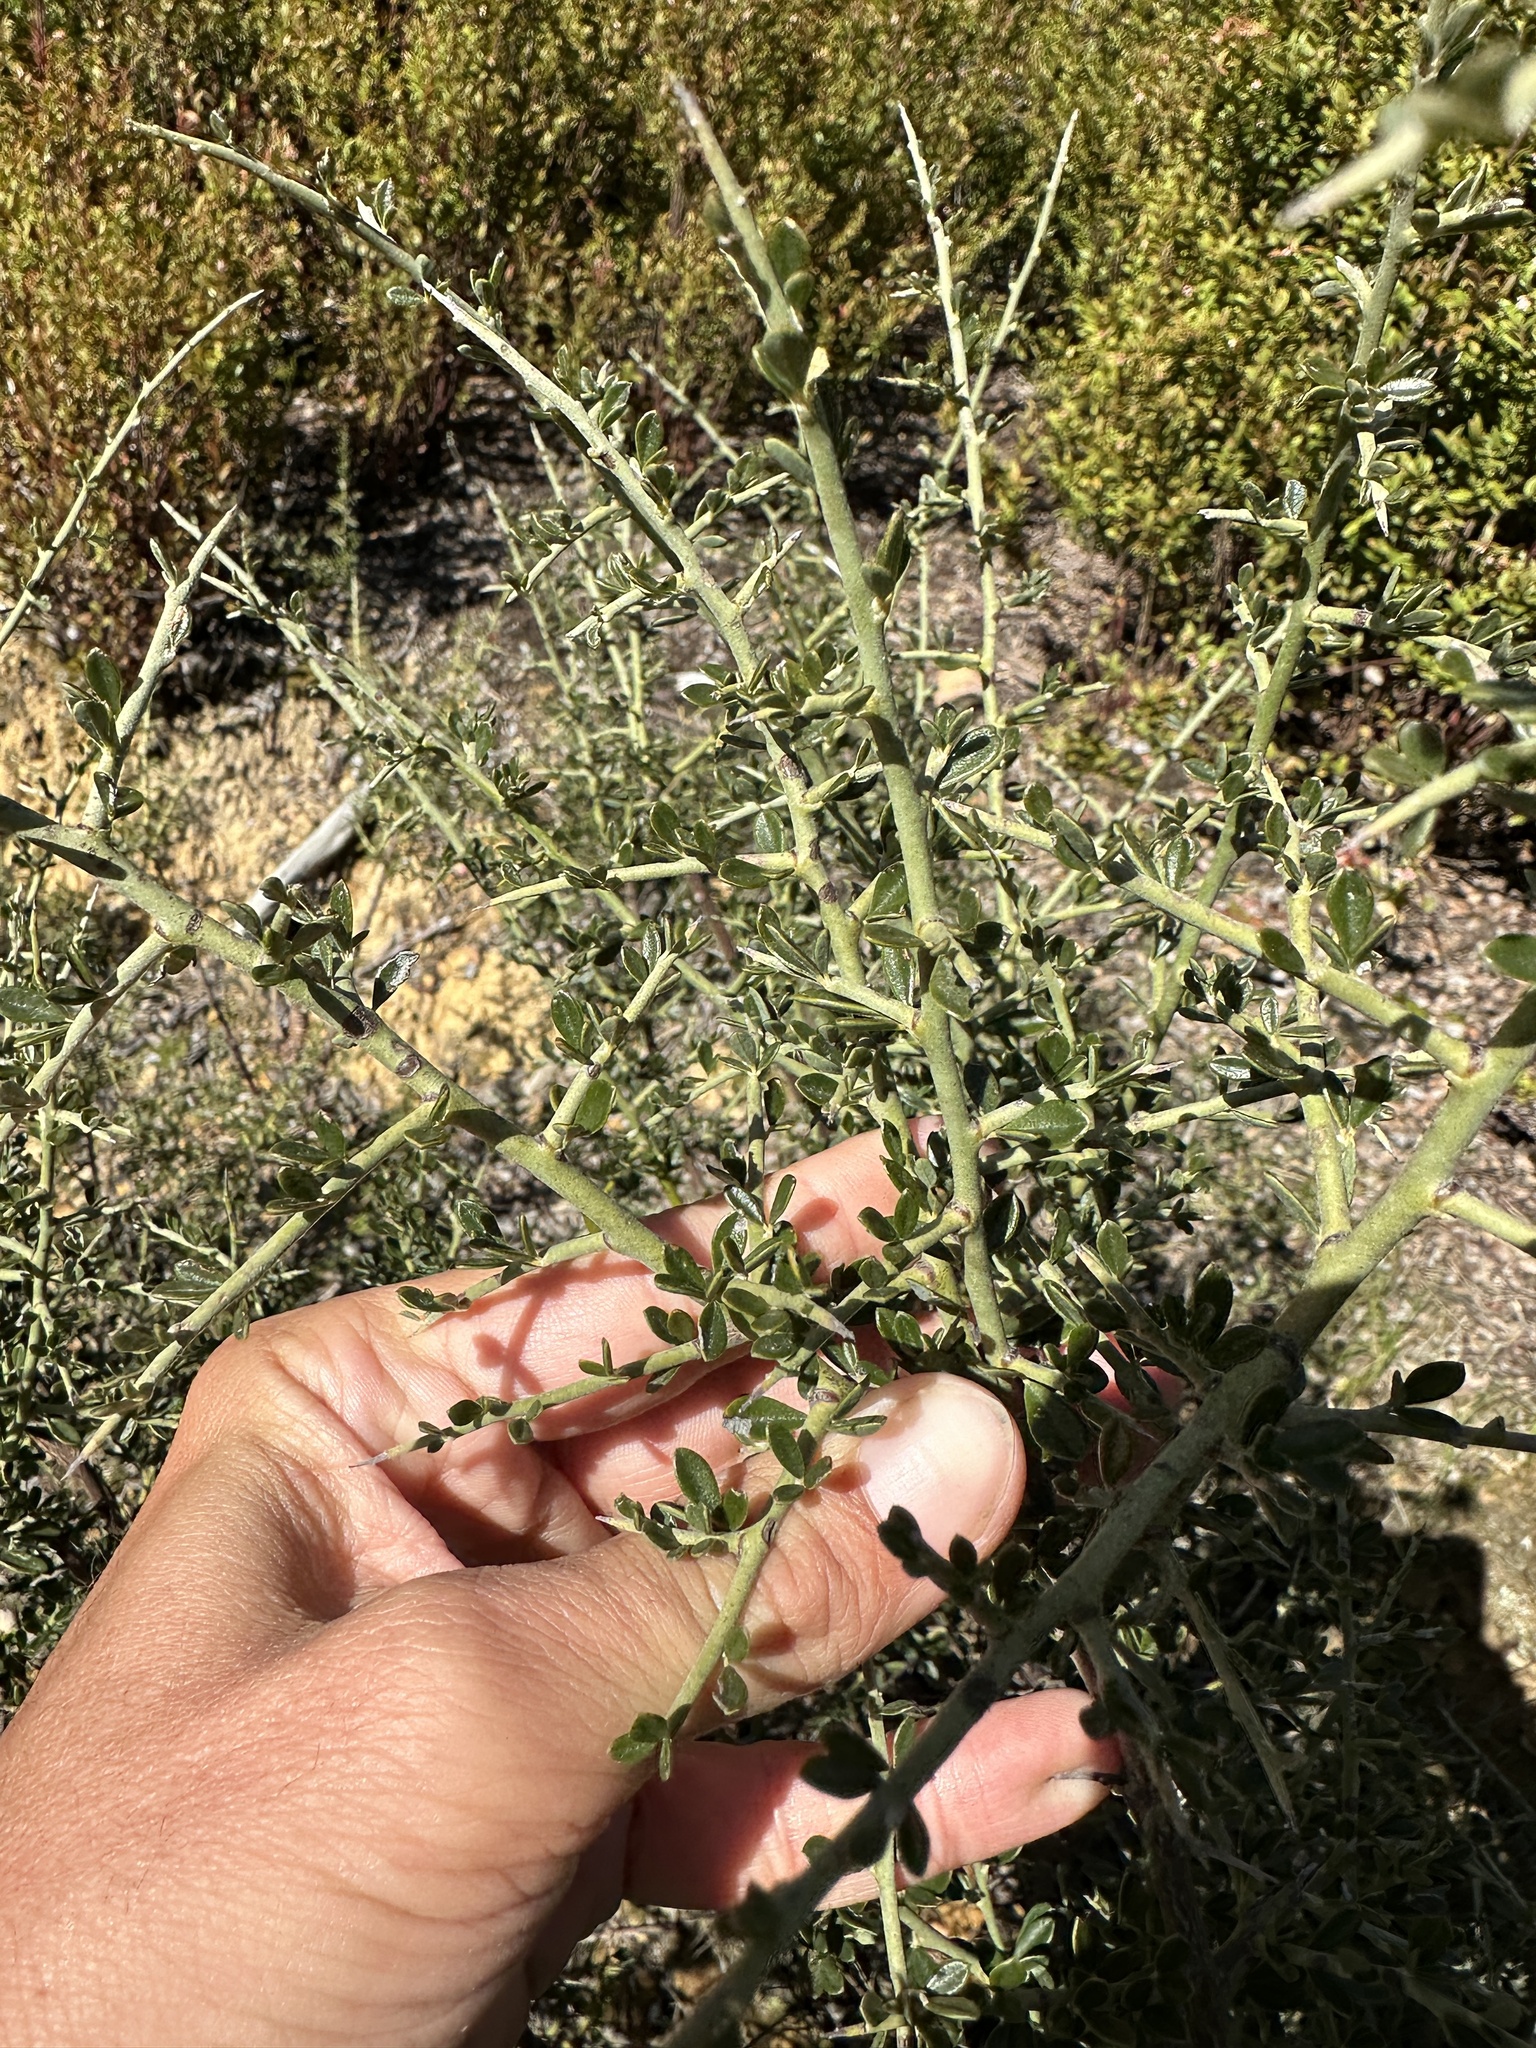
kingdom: Plantae
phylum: Tracheophyta
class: Magnoliopsida
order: Fabales
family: Fabaceae
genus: Pickeringia
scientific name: Pickeringia montana
